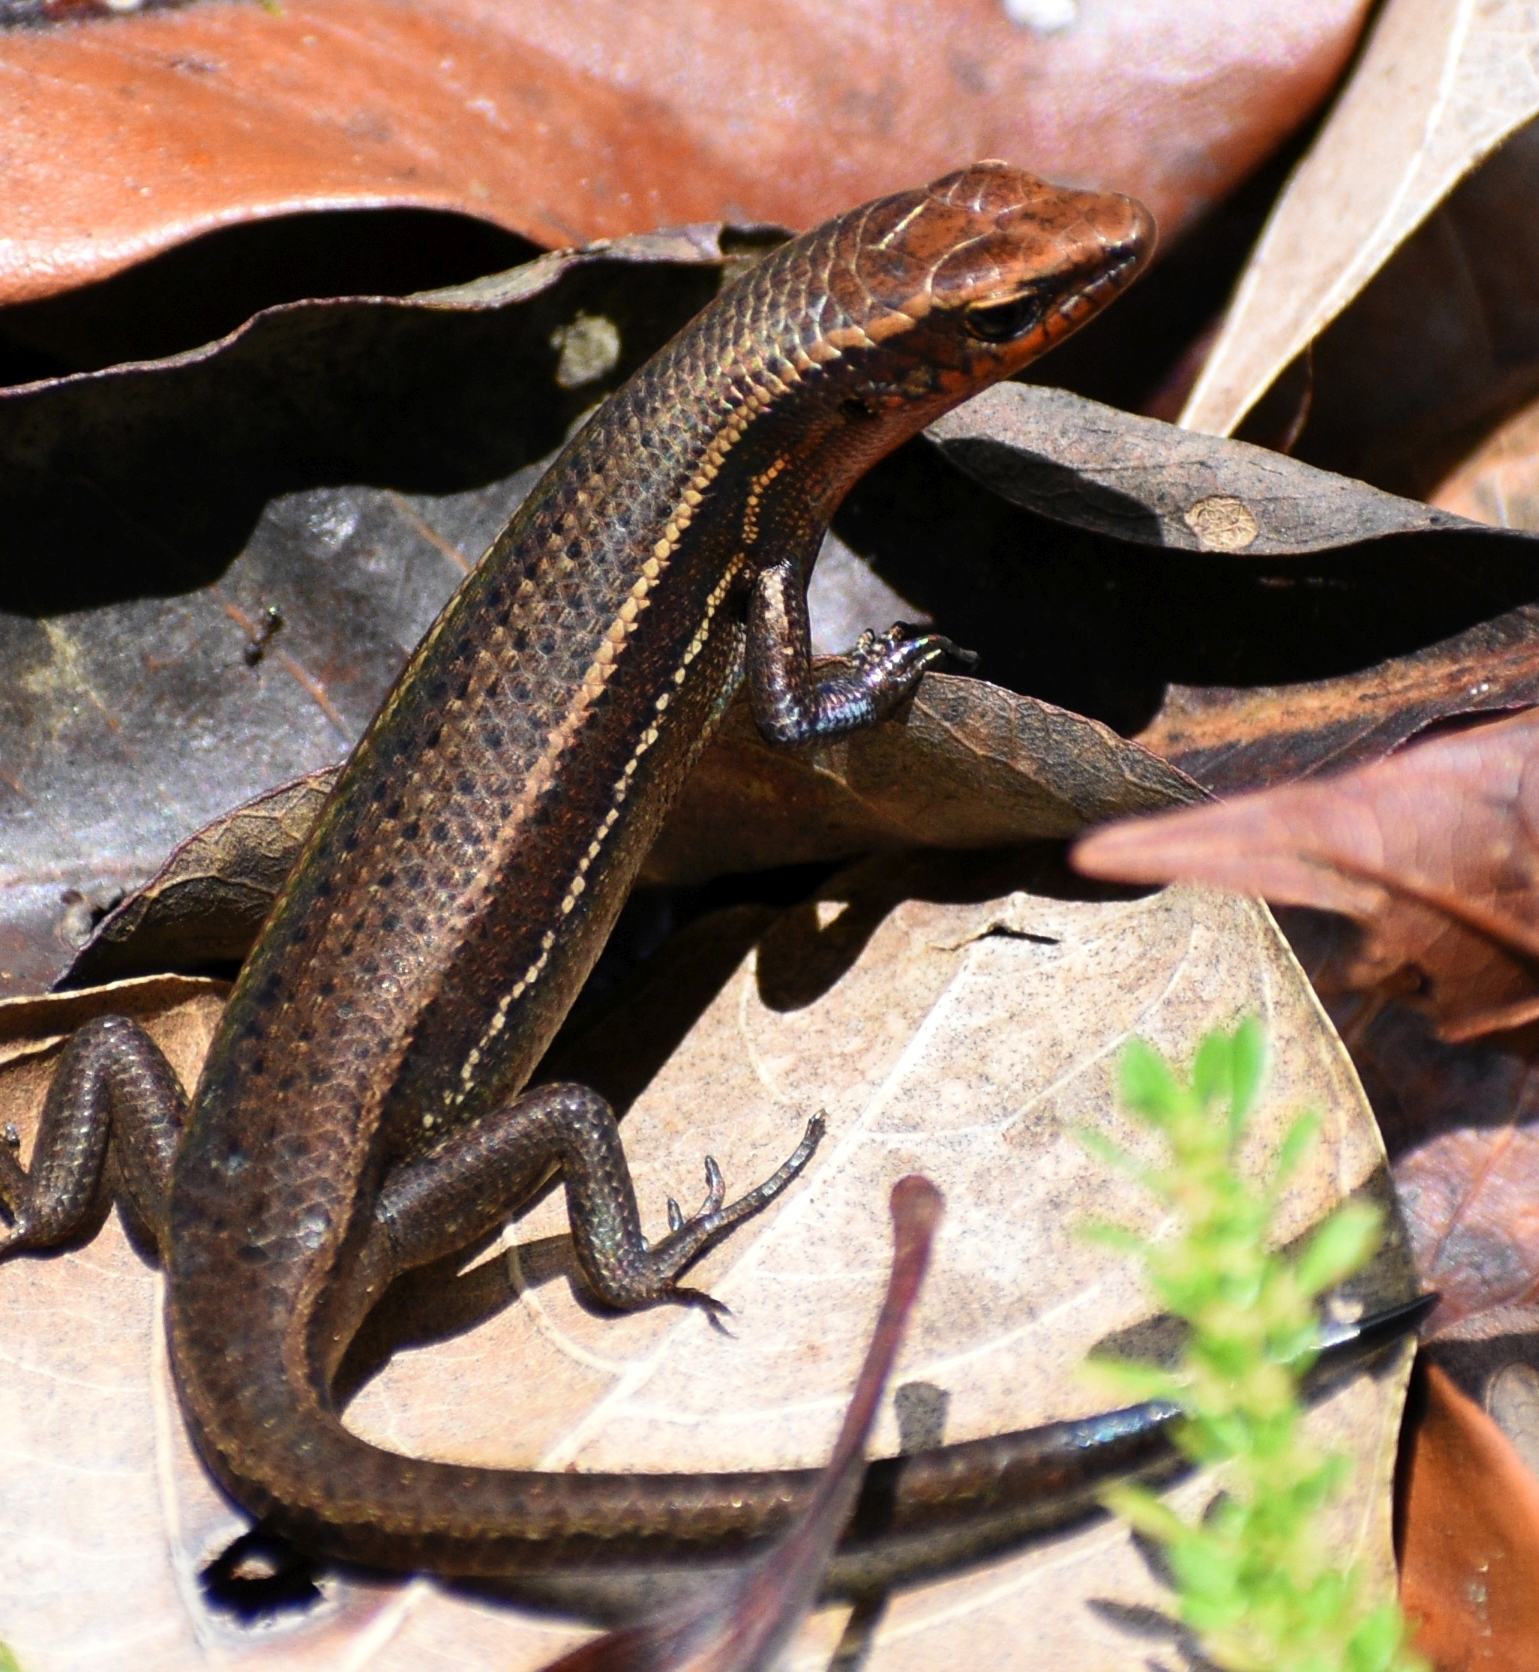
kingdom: Animalia
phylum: Chordata
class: Squamata
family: Scincidae
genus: Carlia
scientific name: Carlia rubrigularis
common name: Northern red-throated skink
